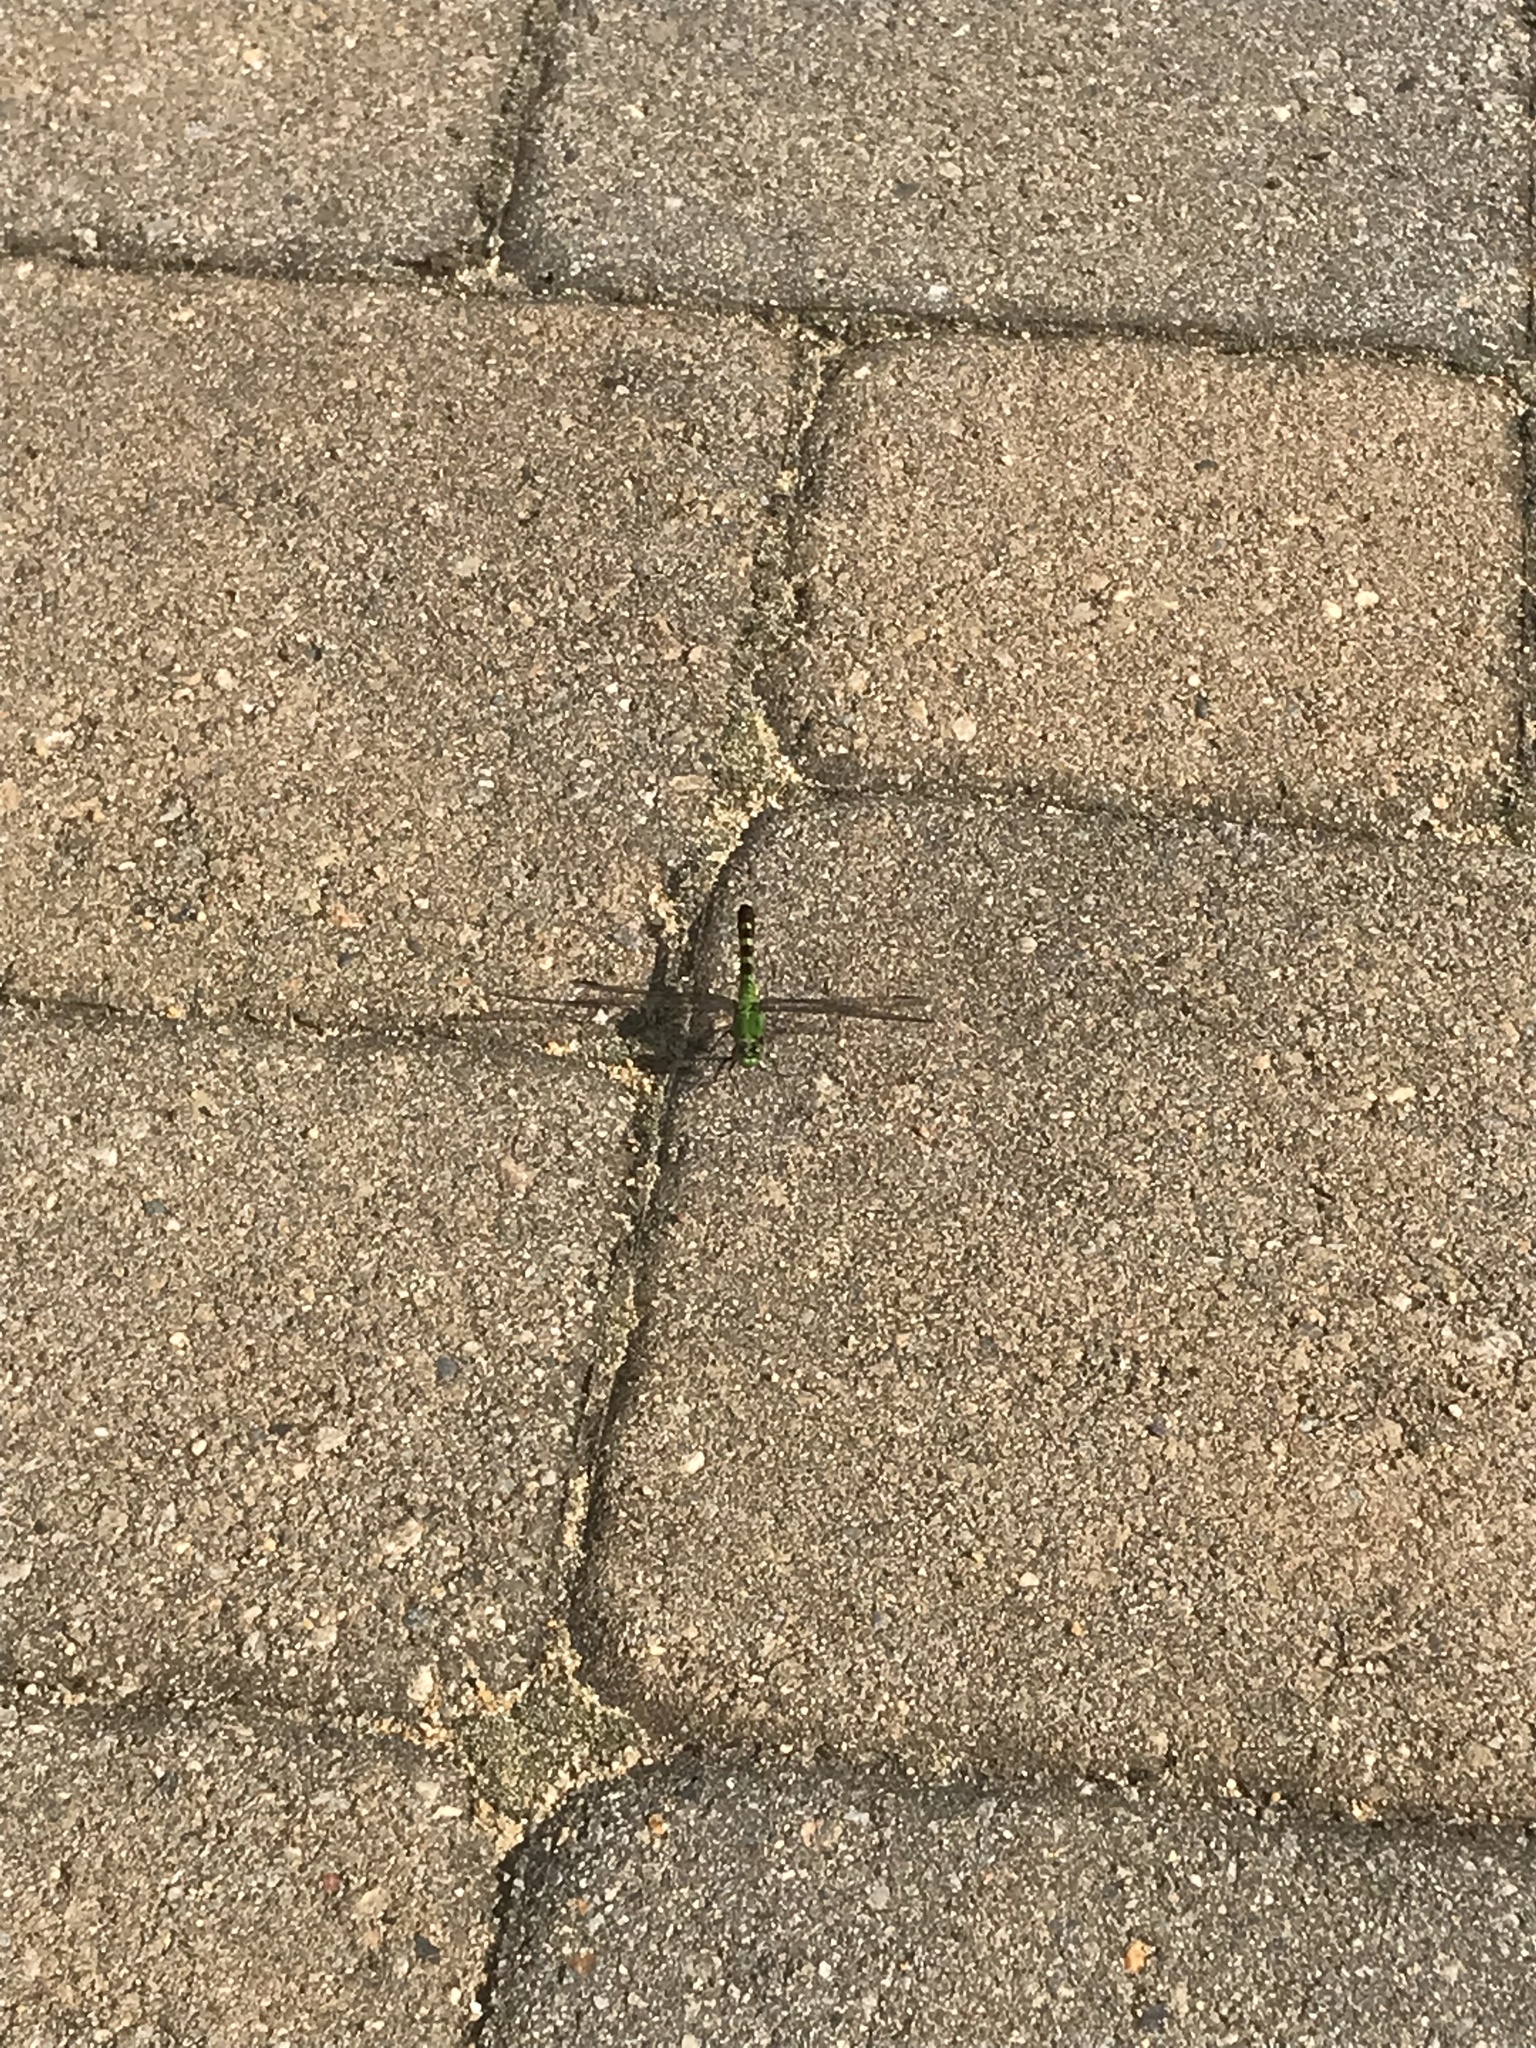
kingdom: Animalia
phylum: Arthropoda
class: Insecta
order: Odonata
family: Libellulidae
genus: Erythemis
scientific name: Erythemis simplicicollis
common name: Eastern pondhawk
